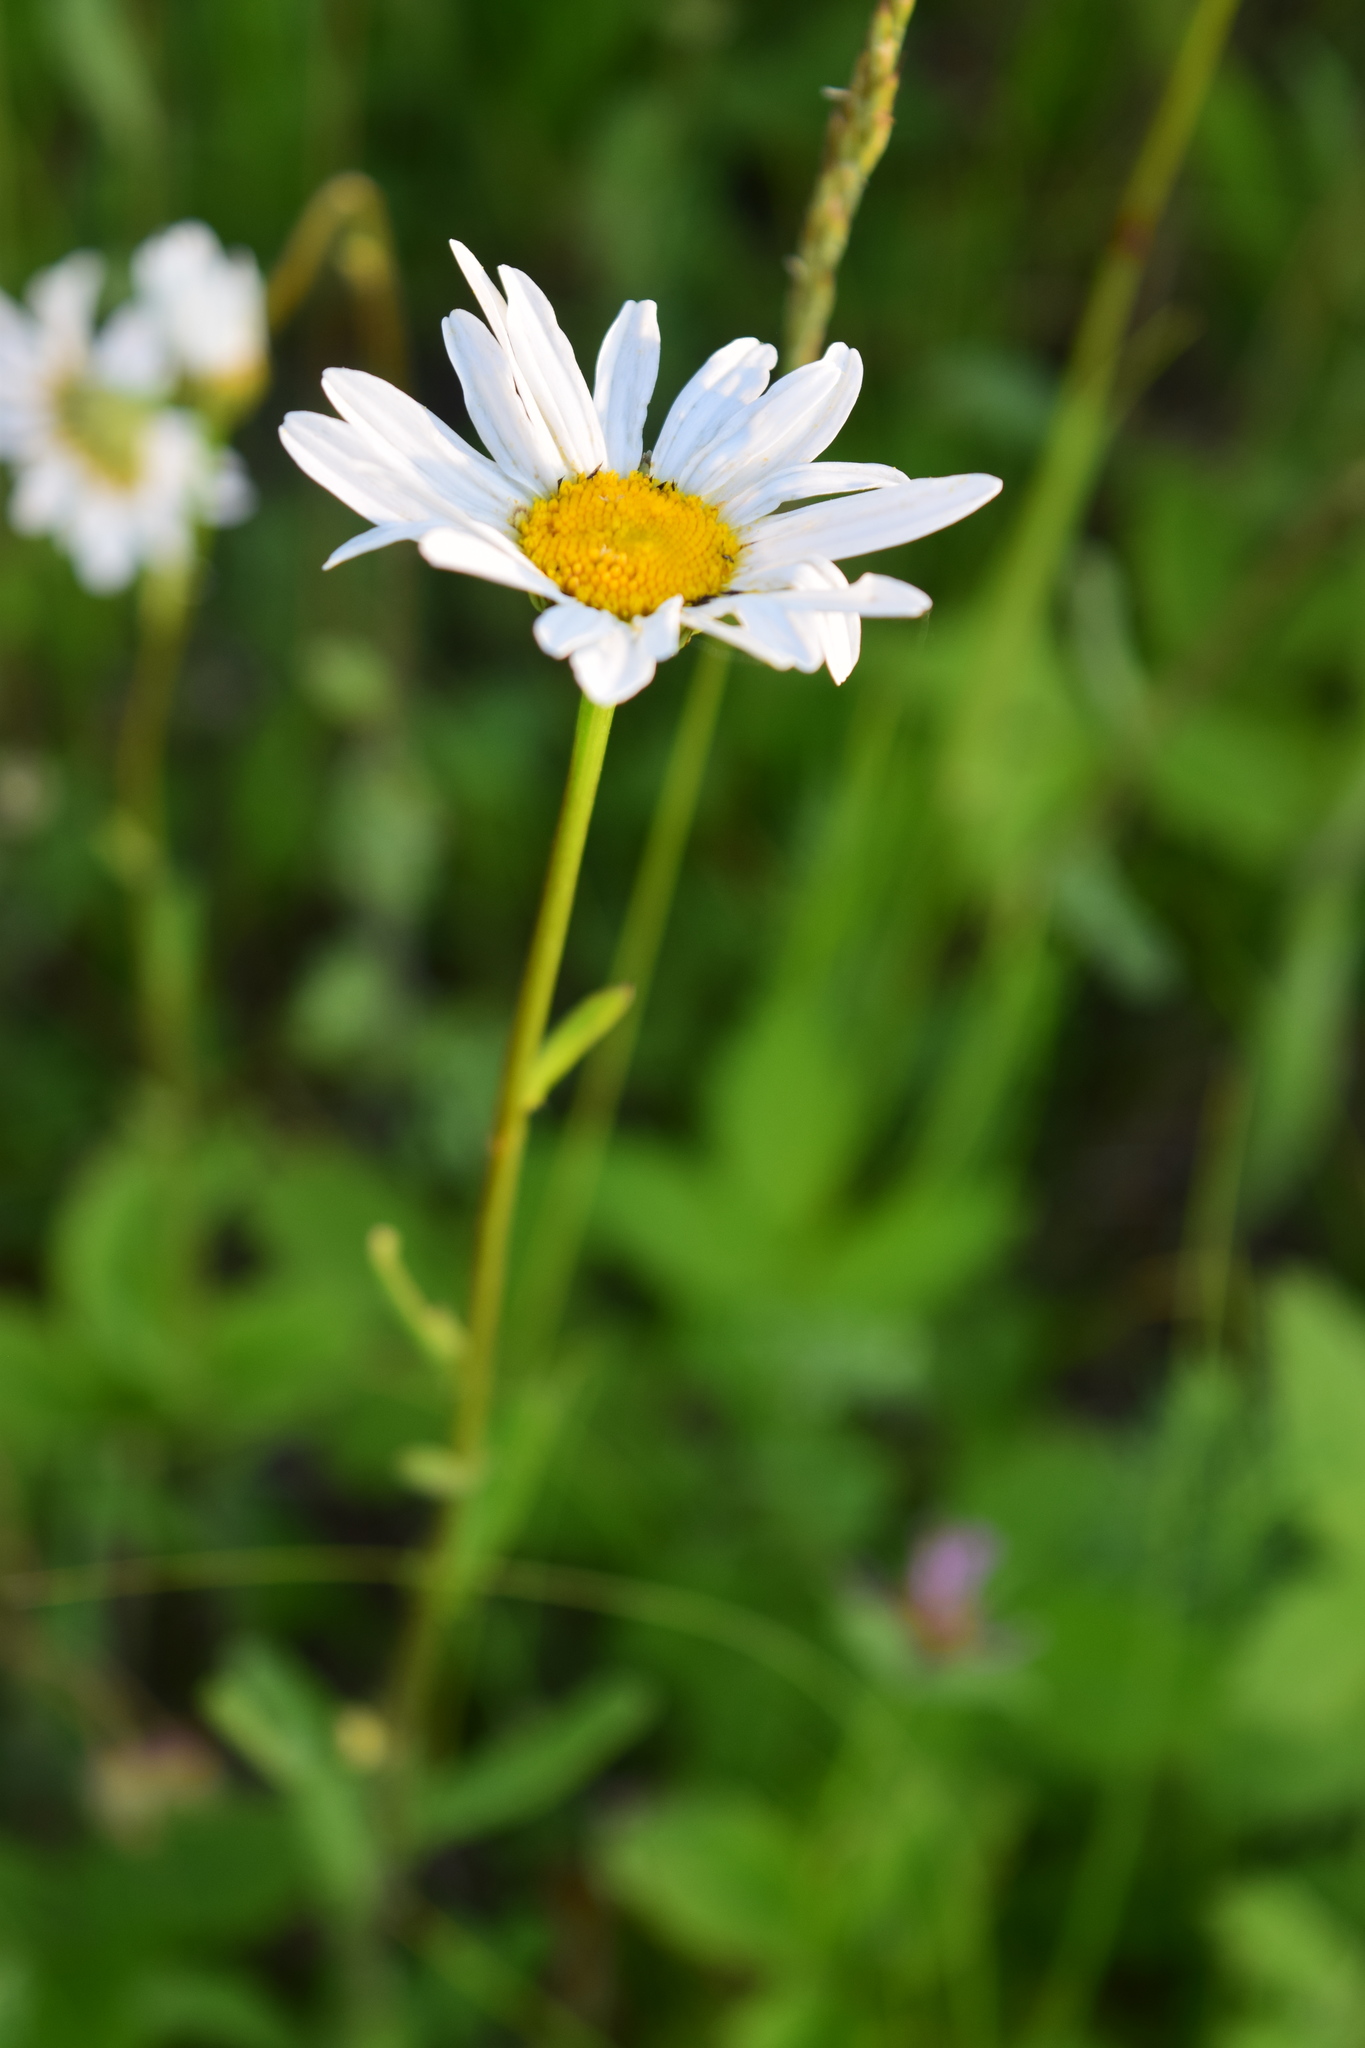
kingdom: Plantae
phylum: Tracheophyta
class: Magnoliopsida
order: Asterales
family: Asteraceae
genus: Leucanthemum
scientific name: Leucanthemum vulgare
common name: Oxeye daisy
